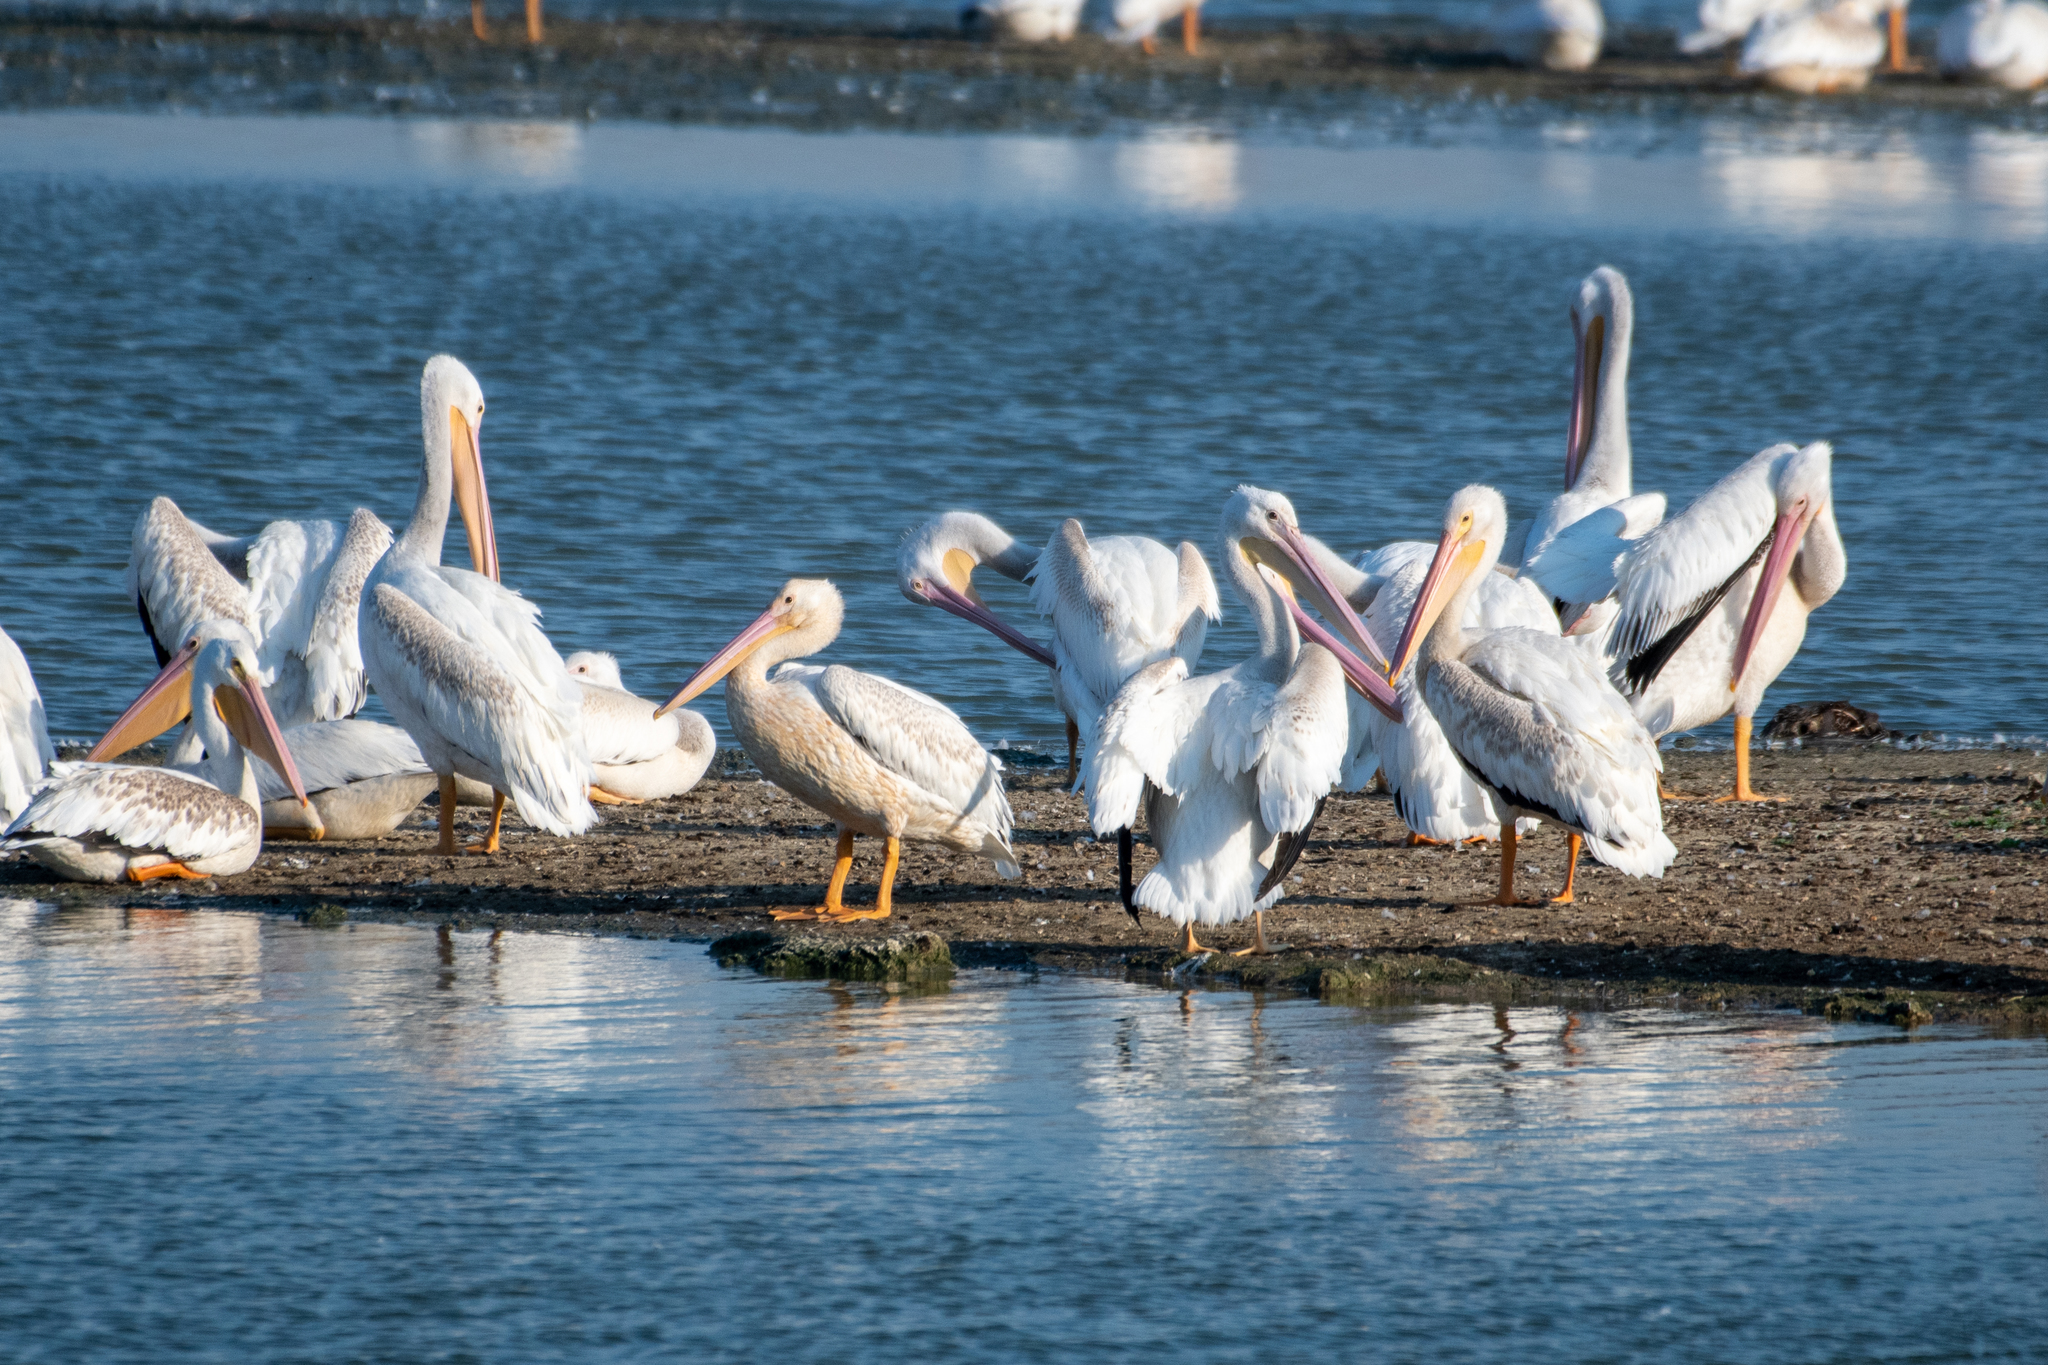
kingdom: Animalia
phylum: Chordata
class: Aves
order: Pelecaniformes
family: Pelecanidae
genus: Pelecanus
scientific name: Pelecanus erythrorhynchos
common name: American white pelican
